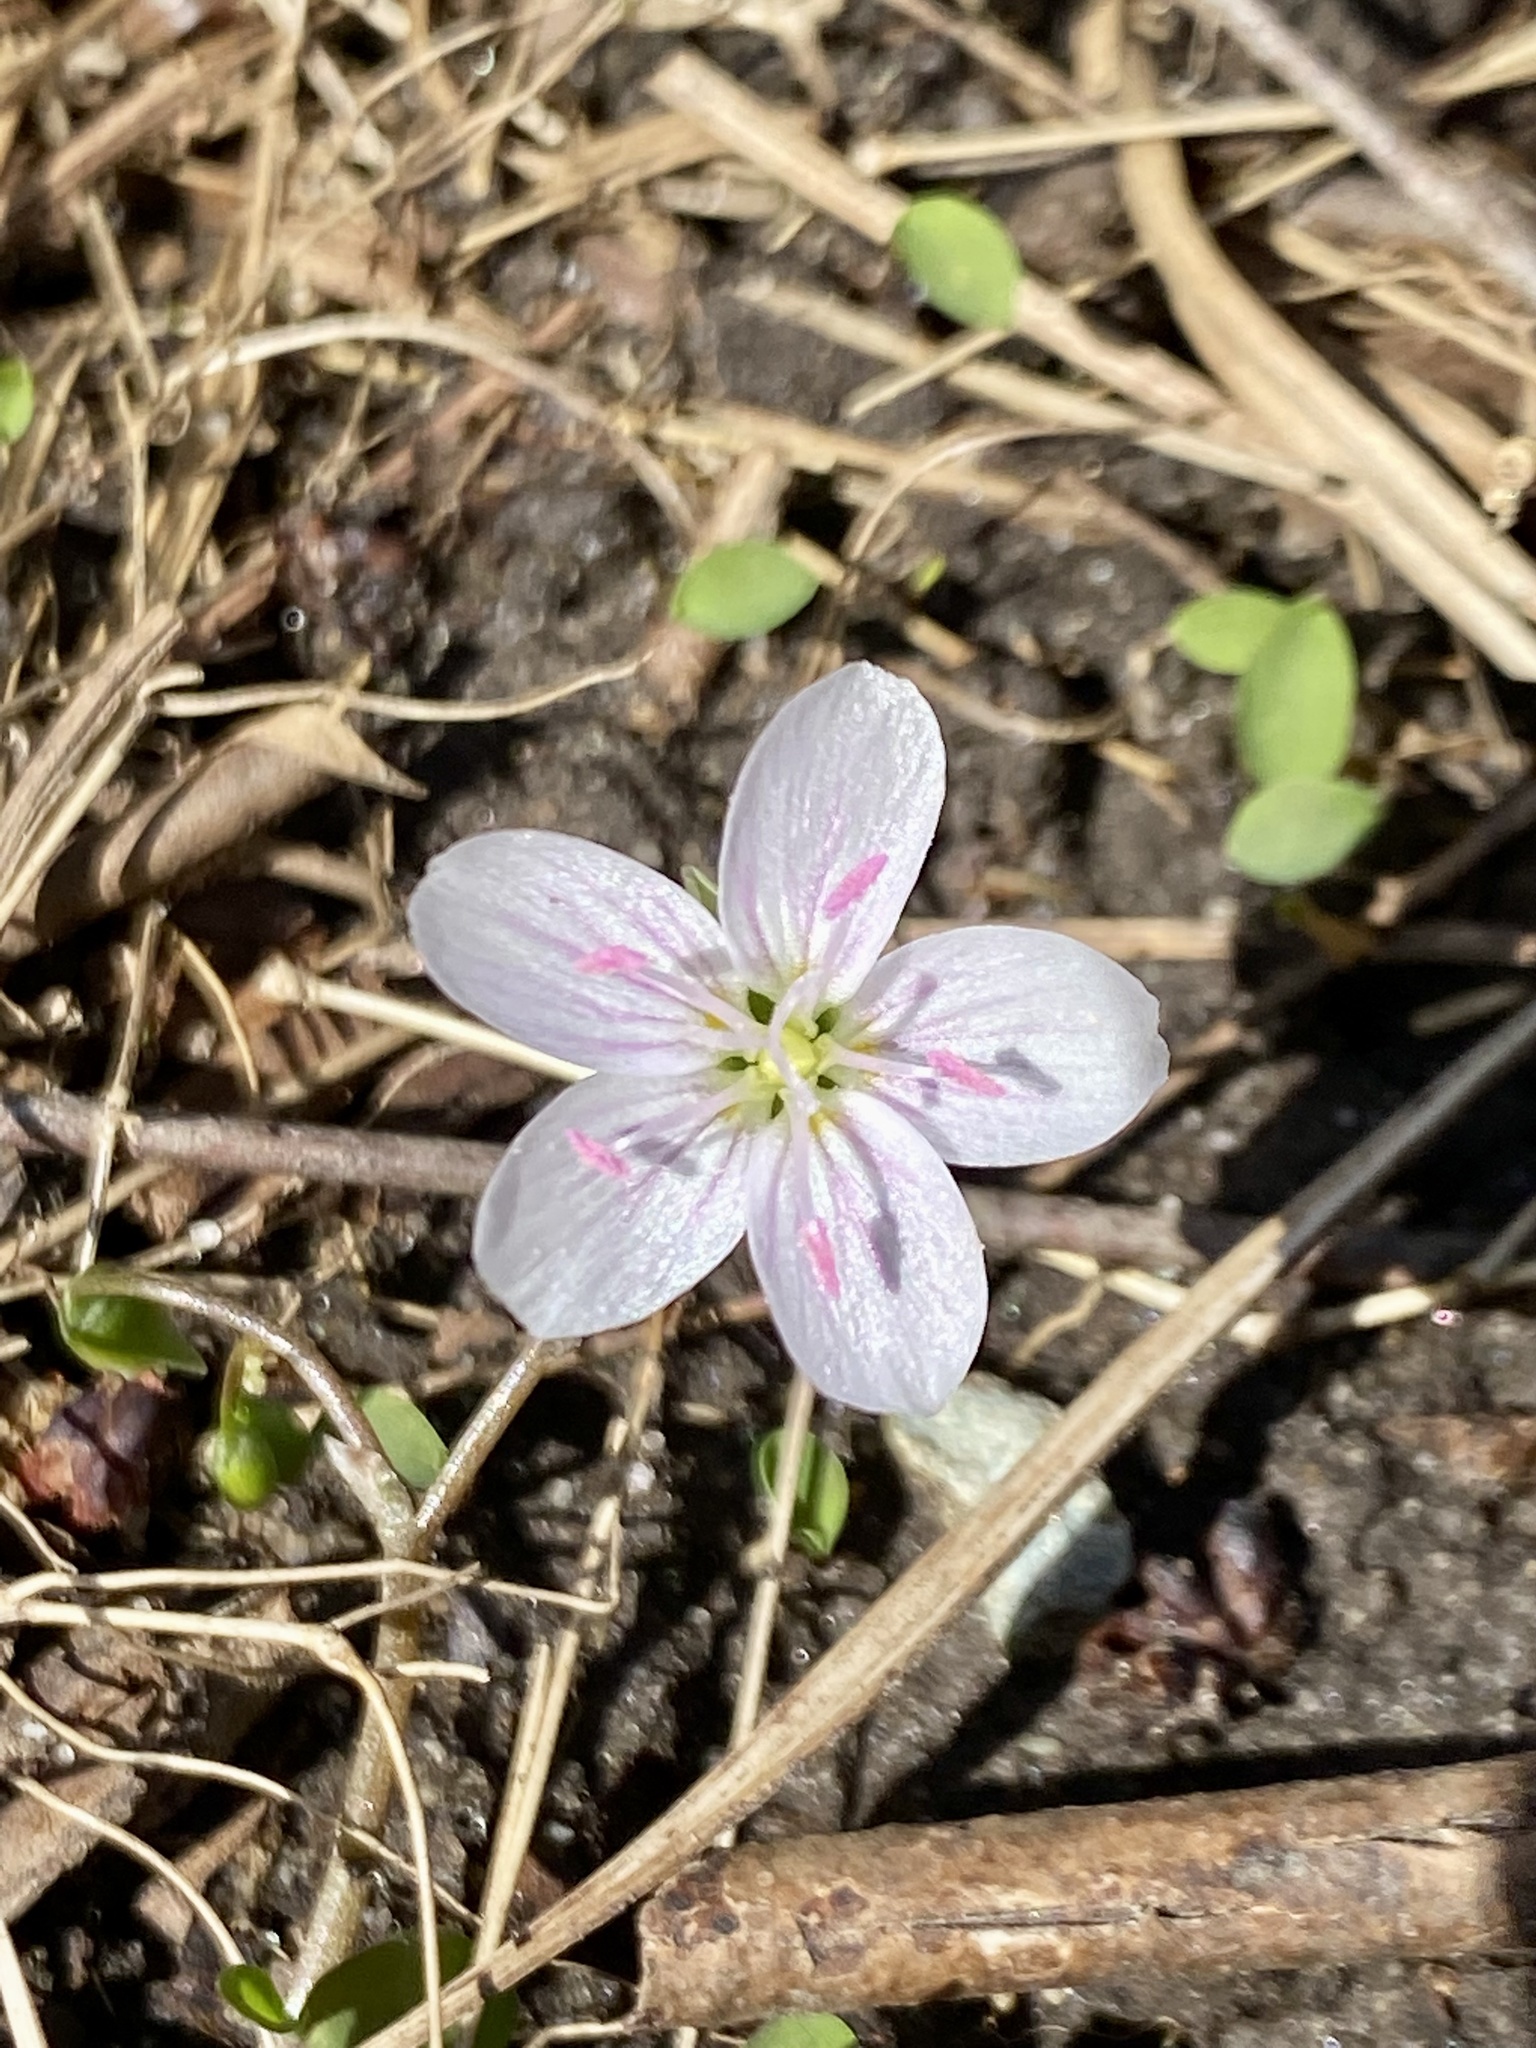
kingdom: Plantae
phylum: Tracheophyta
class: Magnoliopsida
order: Caryophyllales
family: Montiaceae
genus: Claytonia
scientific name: Claytonia virginica
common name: Virginia springbeauty
